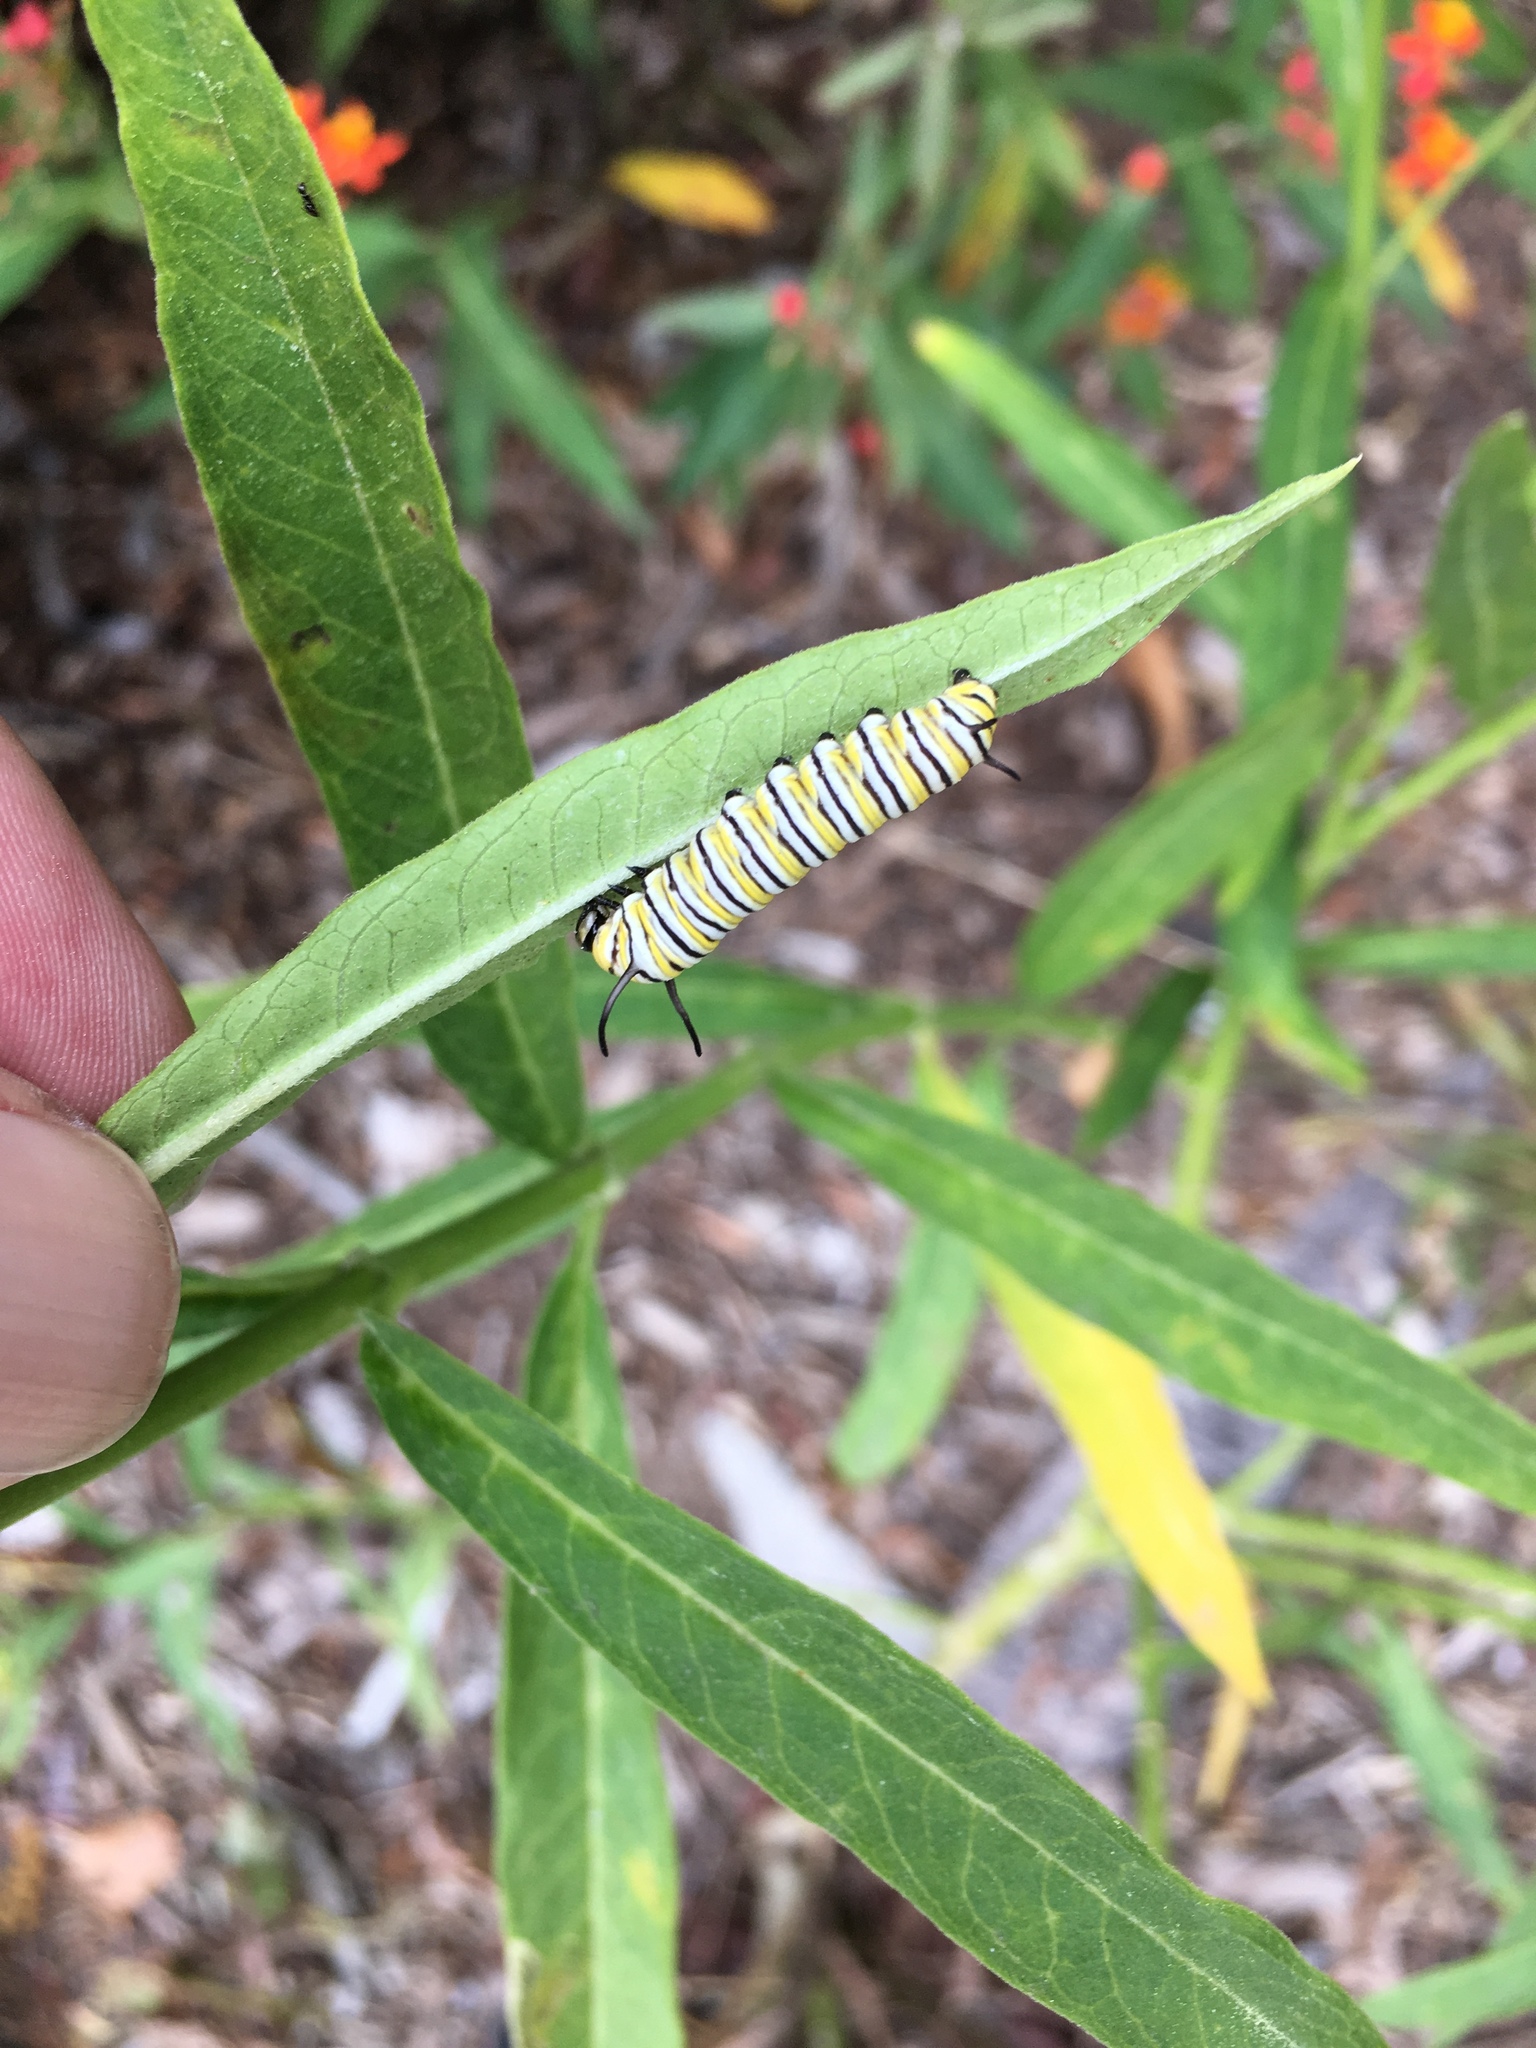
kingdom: Animalia
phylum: Arthropoda
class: Insecta
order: Lepidoptera
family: Nymphalidae
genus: Danaus
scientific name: Danaus plexippus
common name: Monarch
